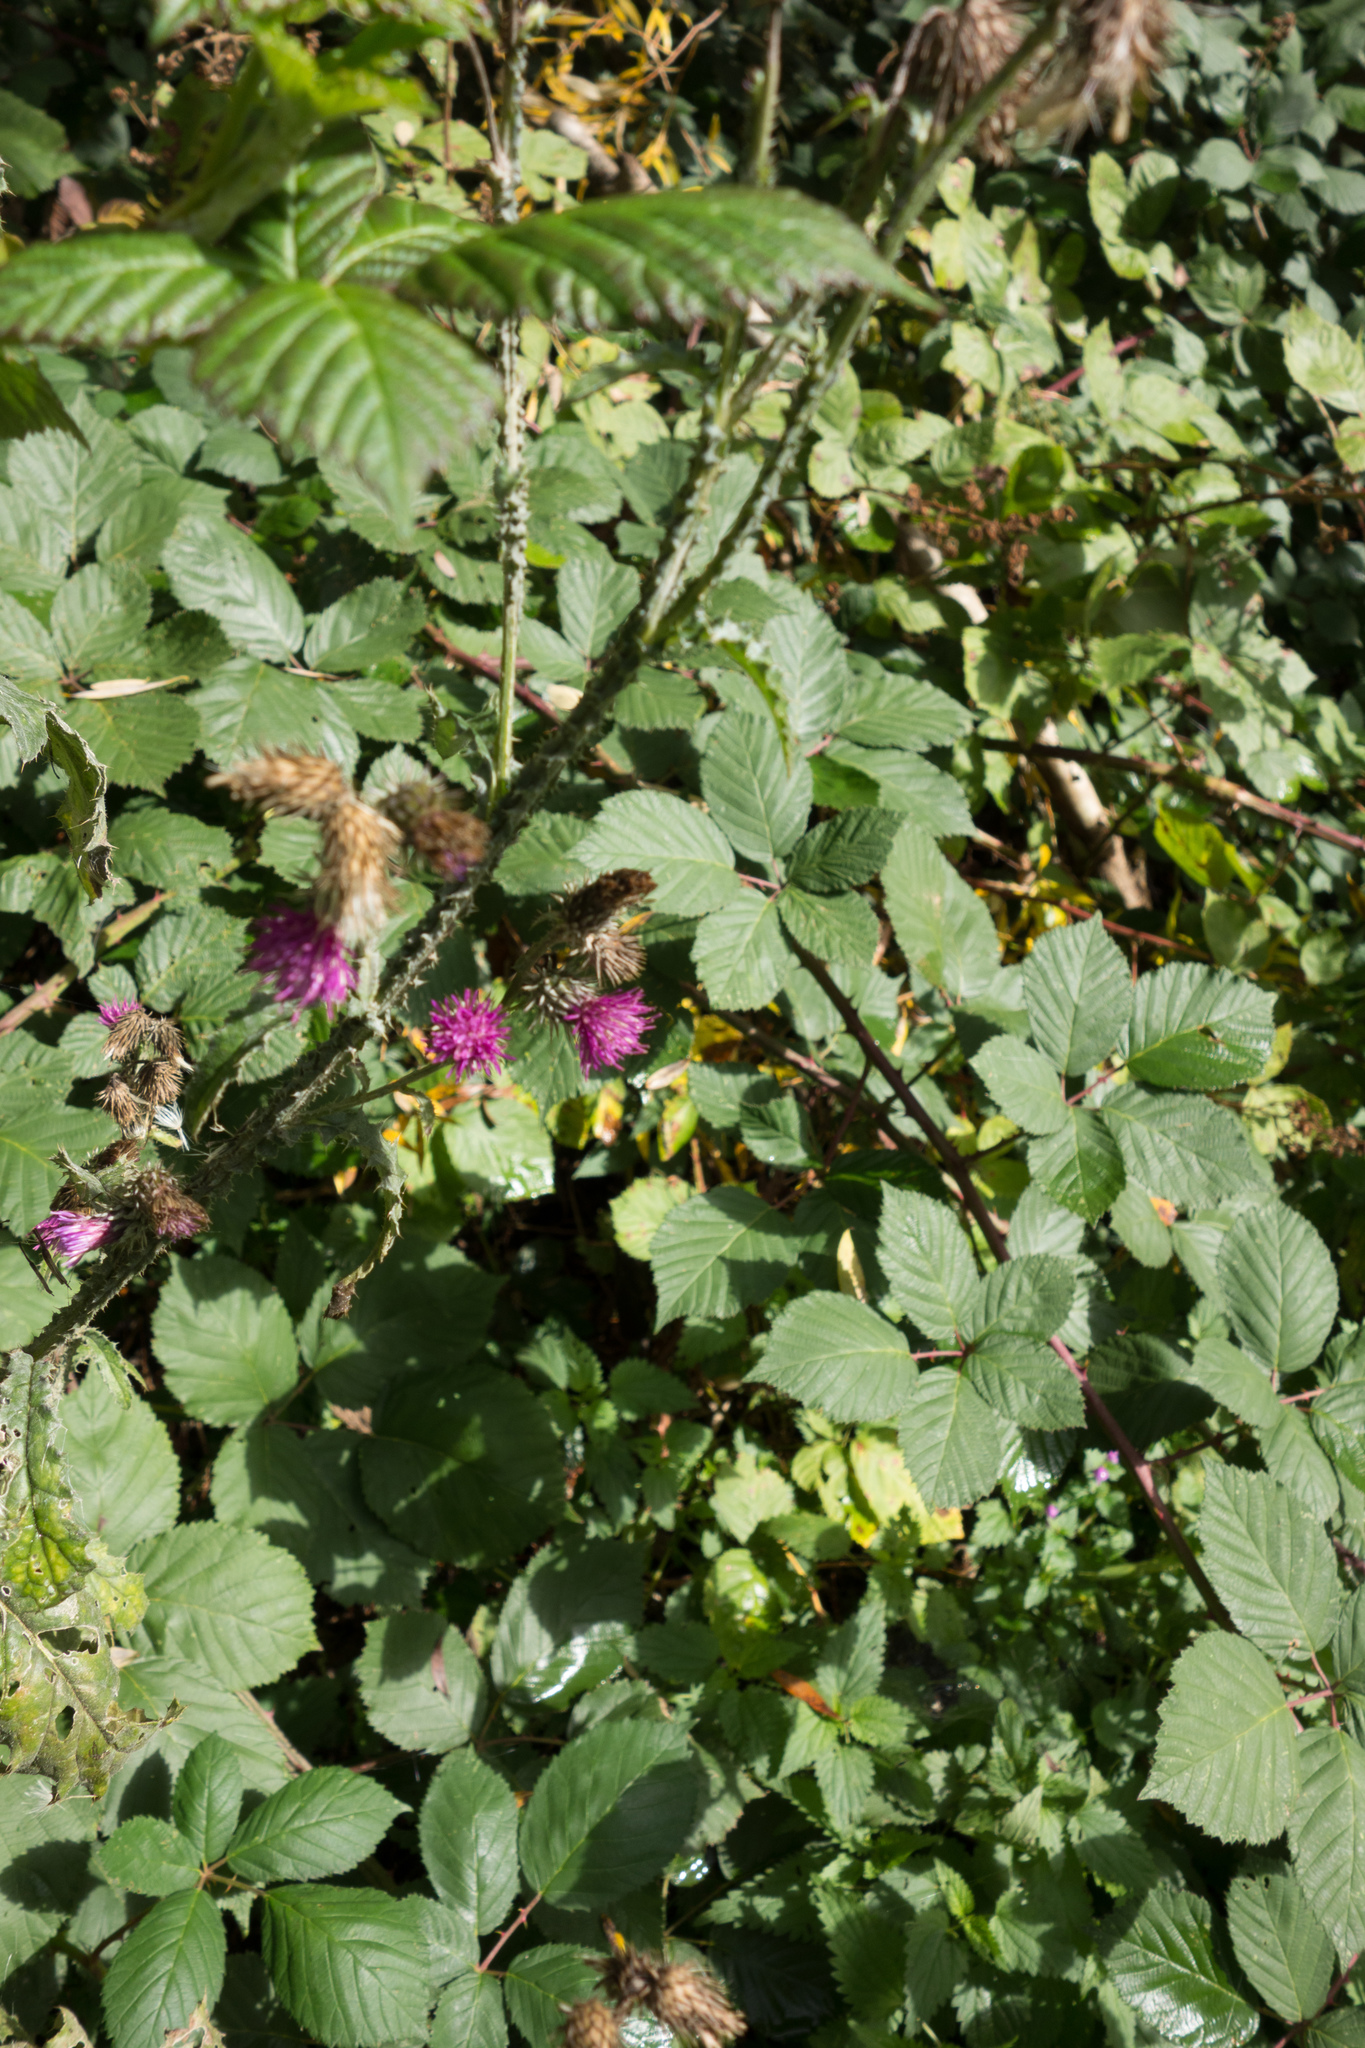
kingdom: Plantae
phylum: Tracheophyta
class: Magnoliopsida
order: Asterales
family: Asteraceae
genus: Carduus
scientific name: Carduus crispus
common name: Welted thistle
